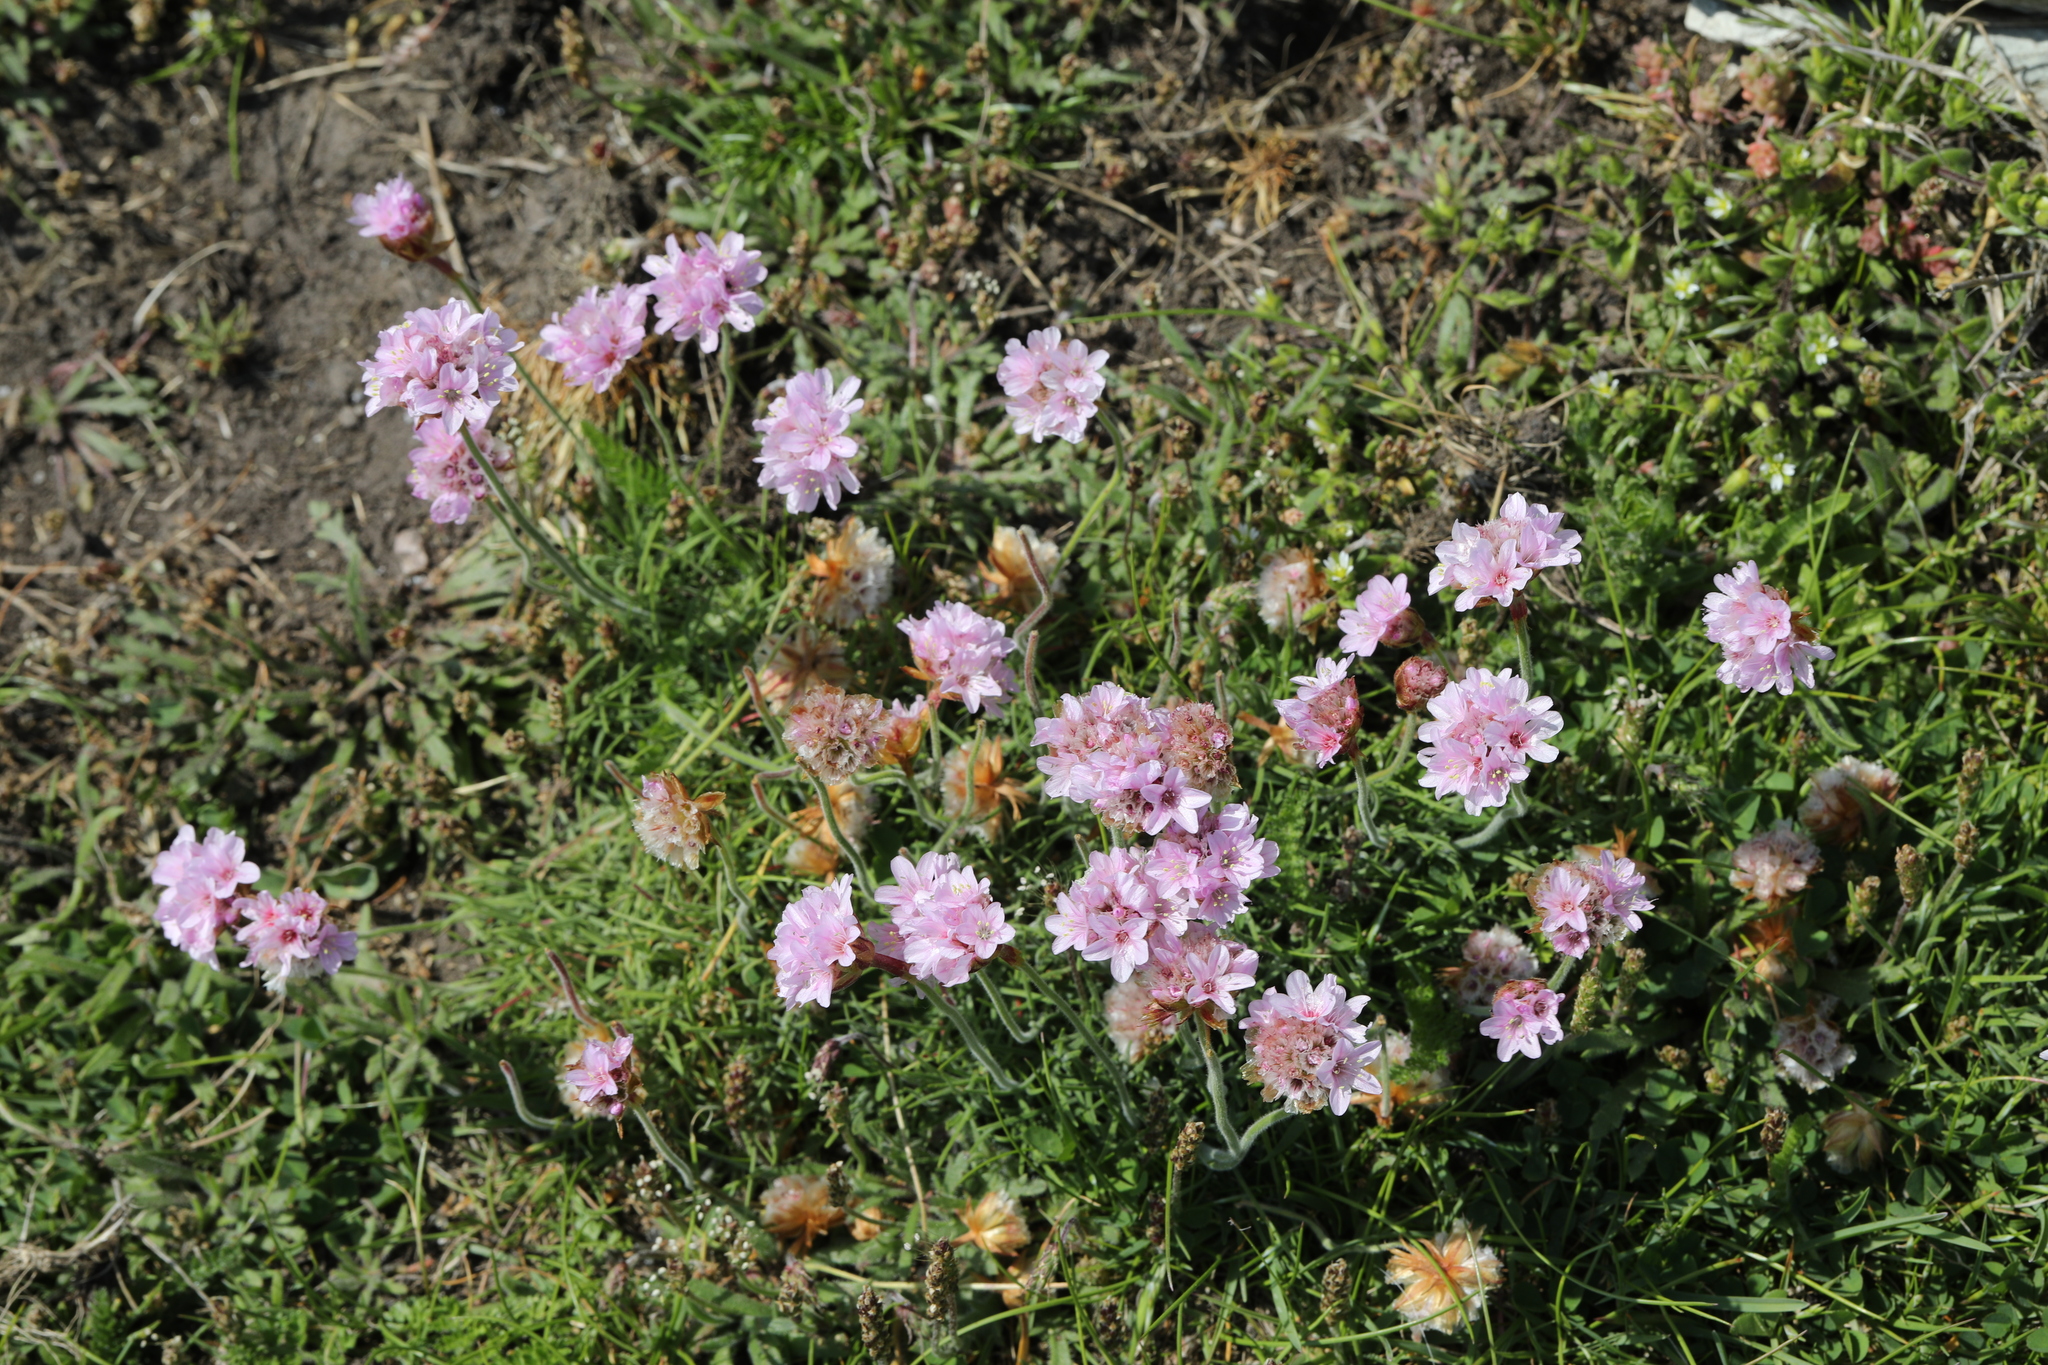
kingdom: Plantae
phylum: Tracheophyta
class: Magnoliopsida
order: Caryophyllales
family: Plumbaginaceae
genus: Armeria
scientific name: Armeria maritima
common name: Thrift
